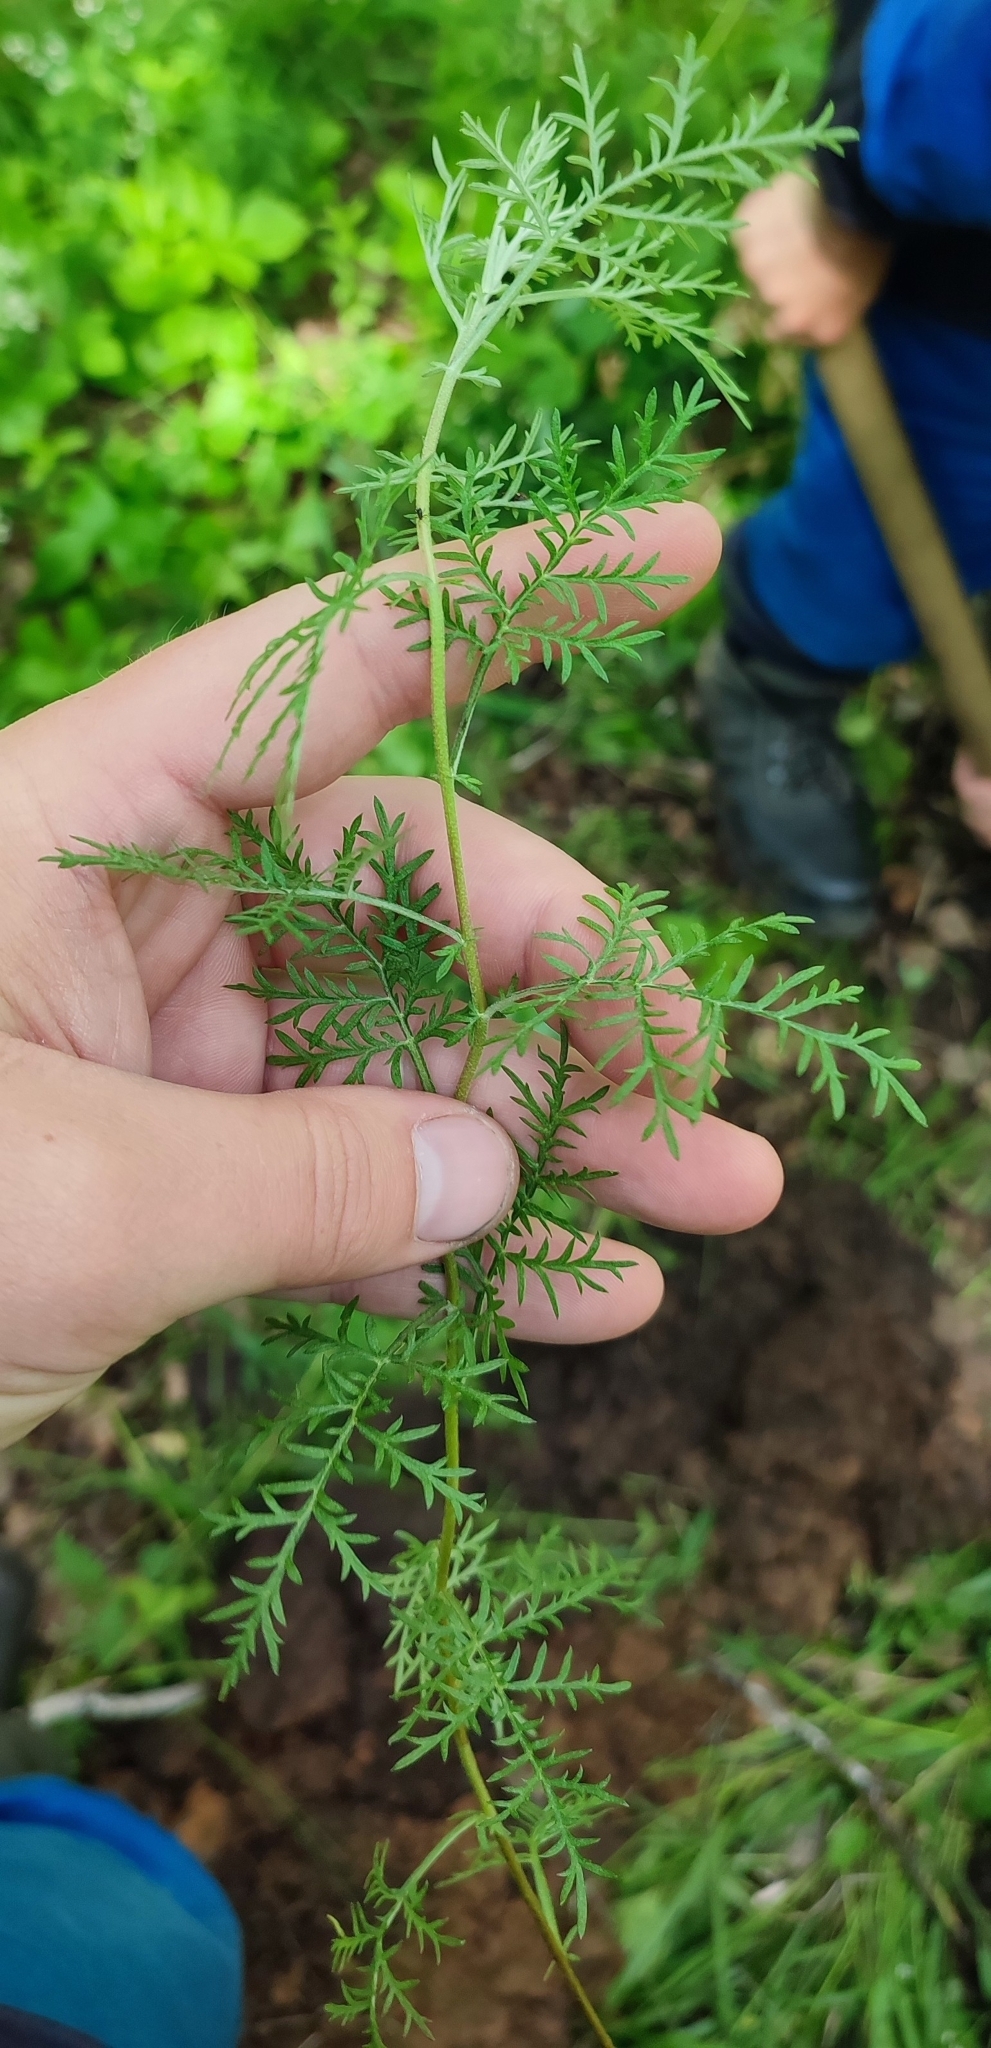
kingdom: Plantae
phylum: Tracheophyta
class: Magnoliopsida
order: Asterales
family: Asteraceae
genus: Artemisia
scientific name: Artemisia macrantha
